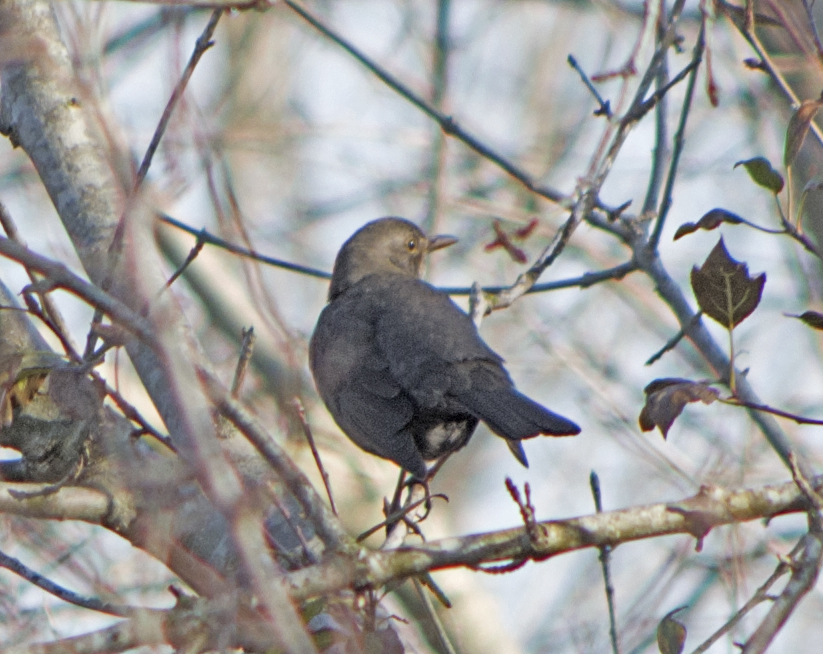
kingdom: Animalia
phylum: Chordata
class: Aves
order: Passeriformes
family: Turdidae
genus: Turdus
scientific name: Turdus merula
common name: Common blackbird
